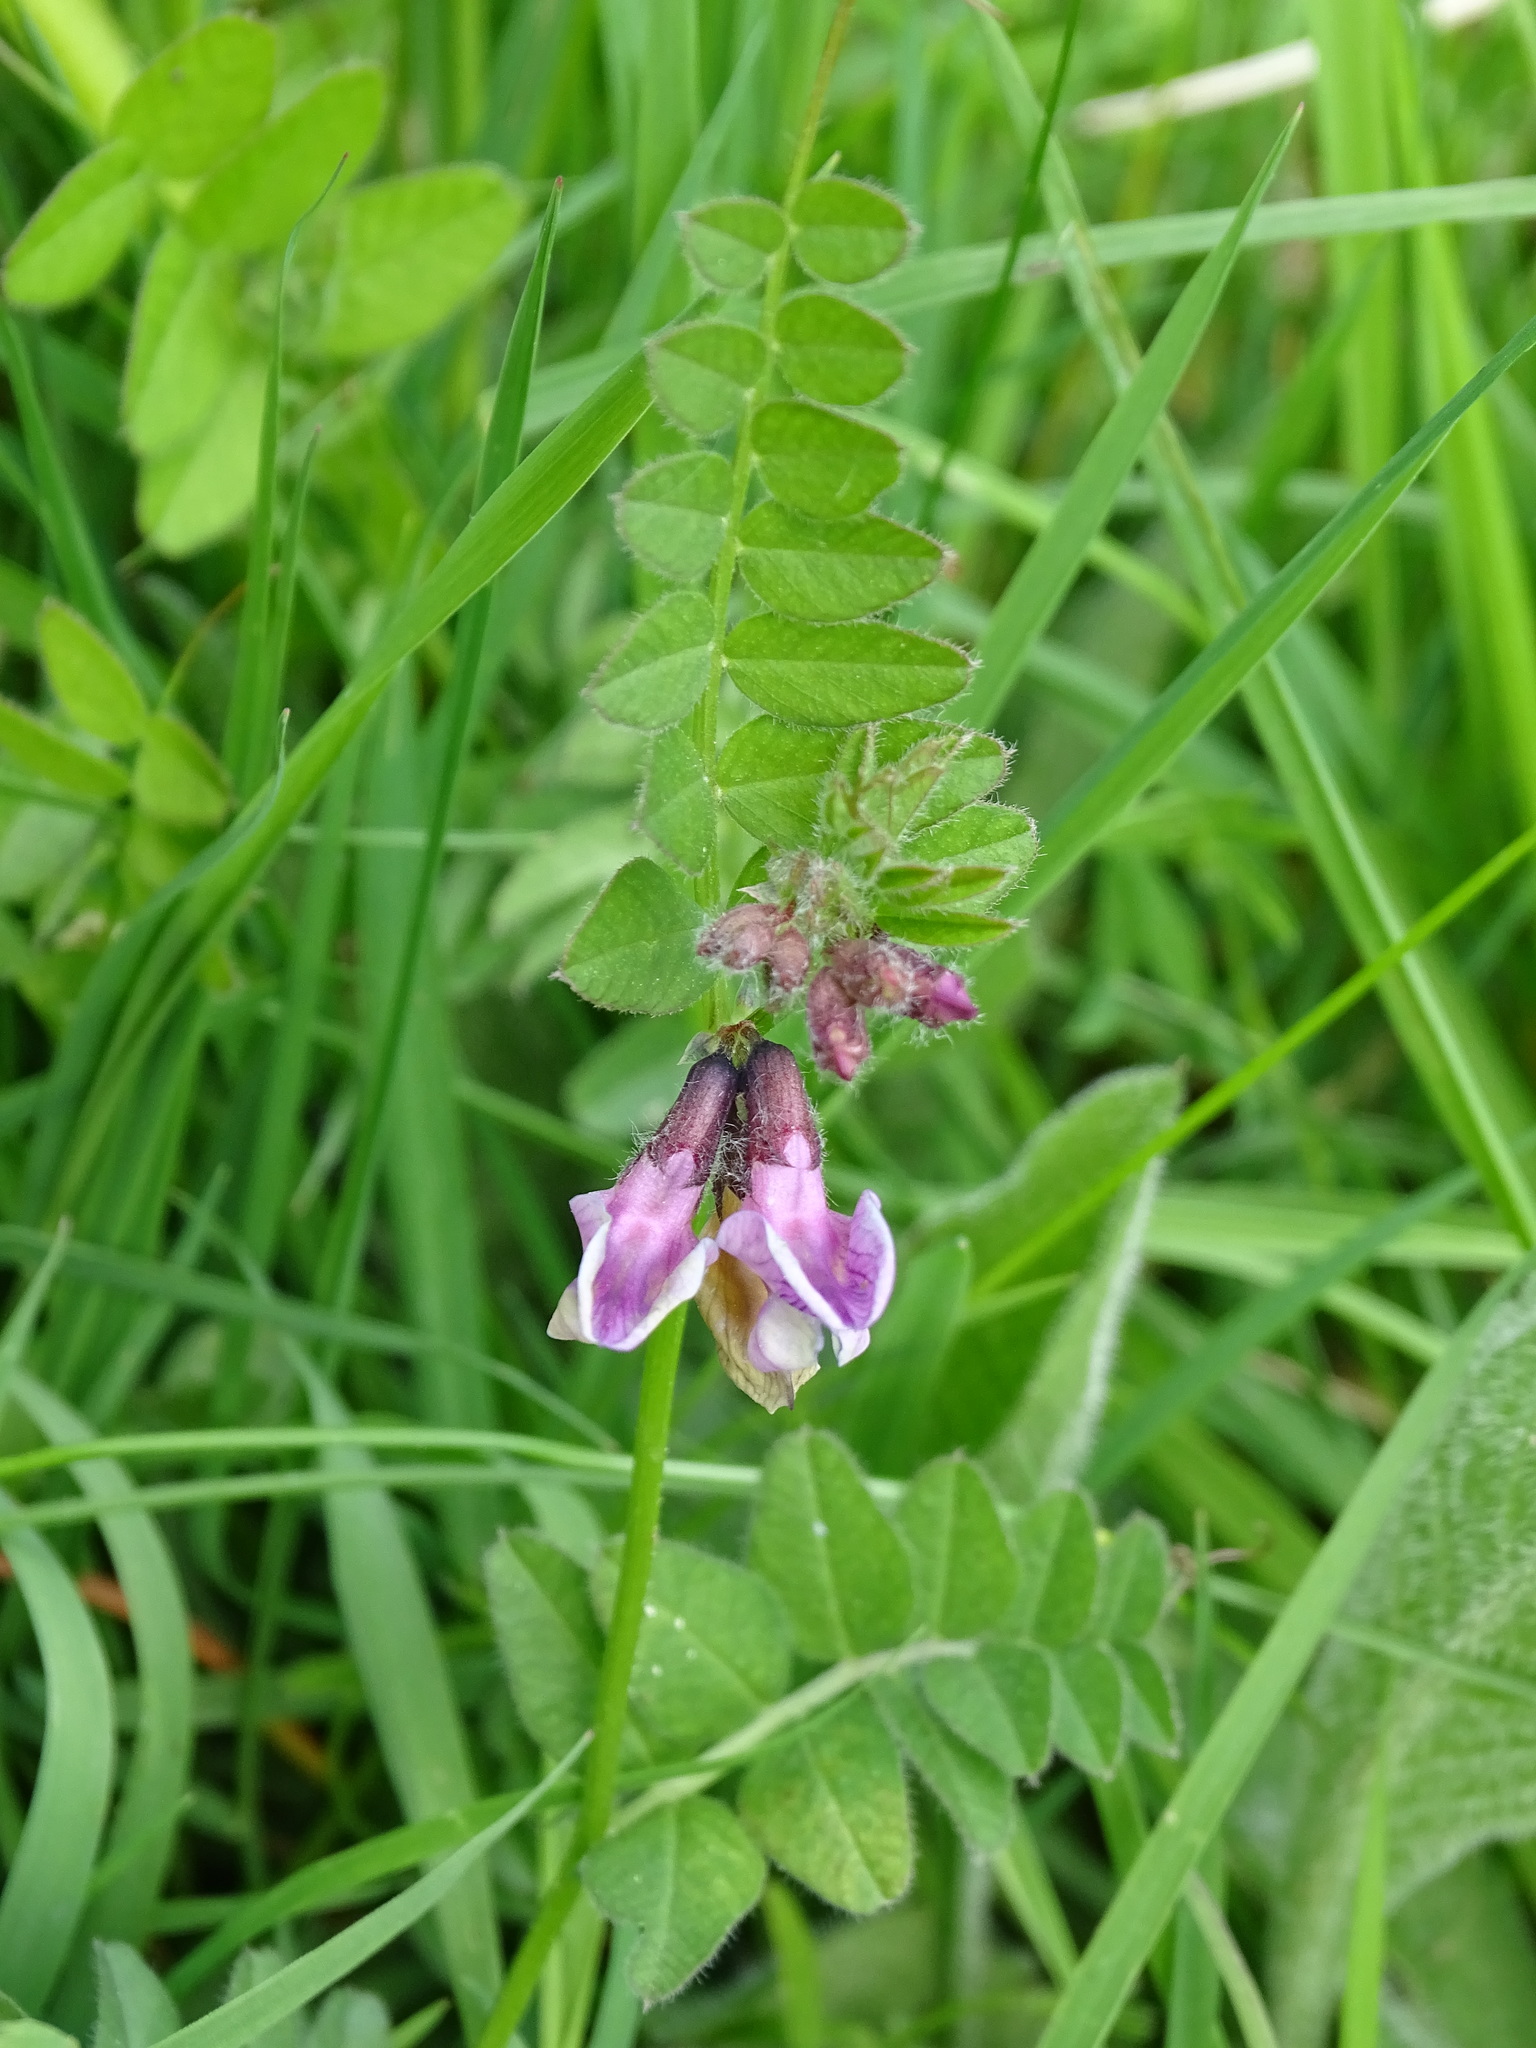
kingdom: Plantae
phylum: Tracheophyta
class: Magnoliopsida
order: Fabales
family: Fabaceae
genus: Vicia
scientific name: Vicia sepium
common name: Bush vetch
